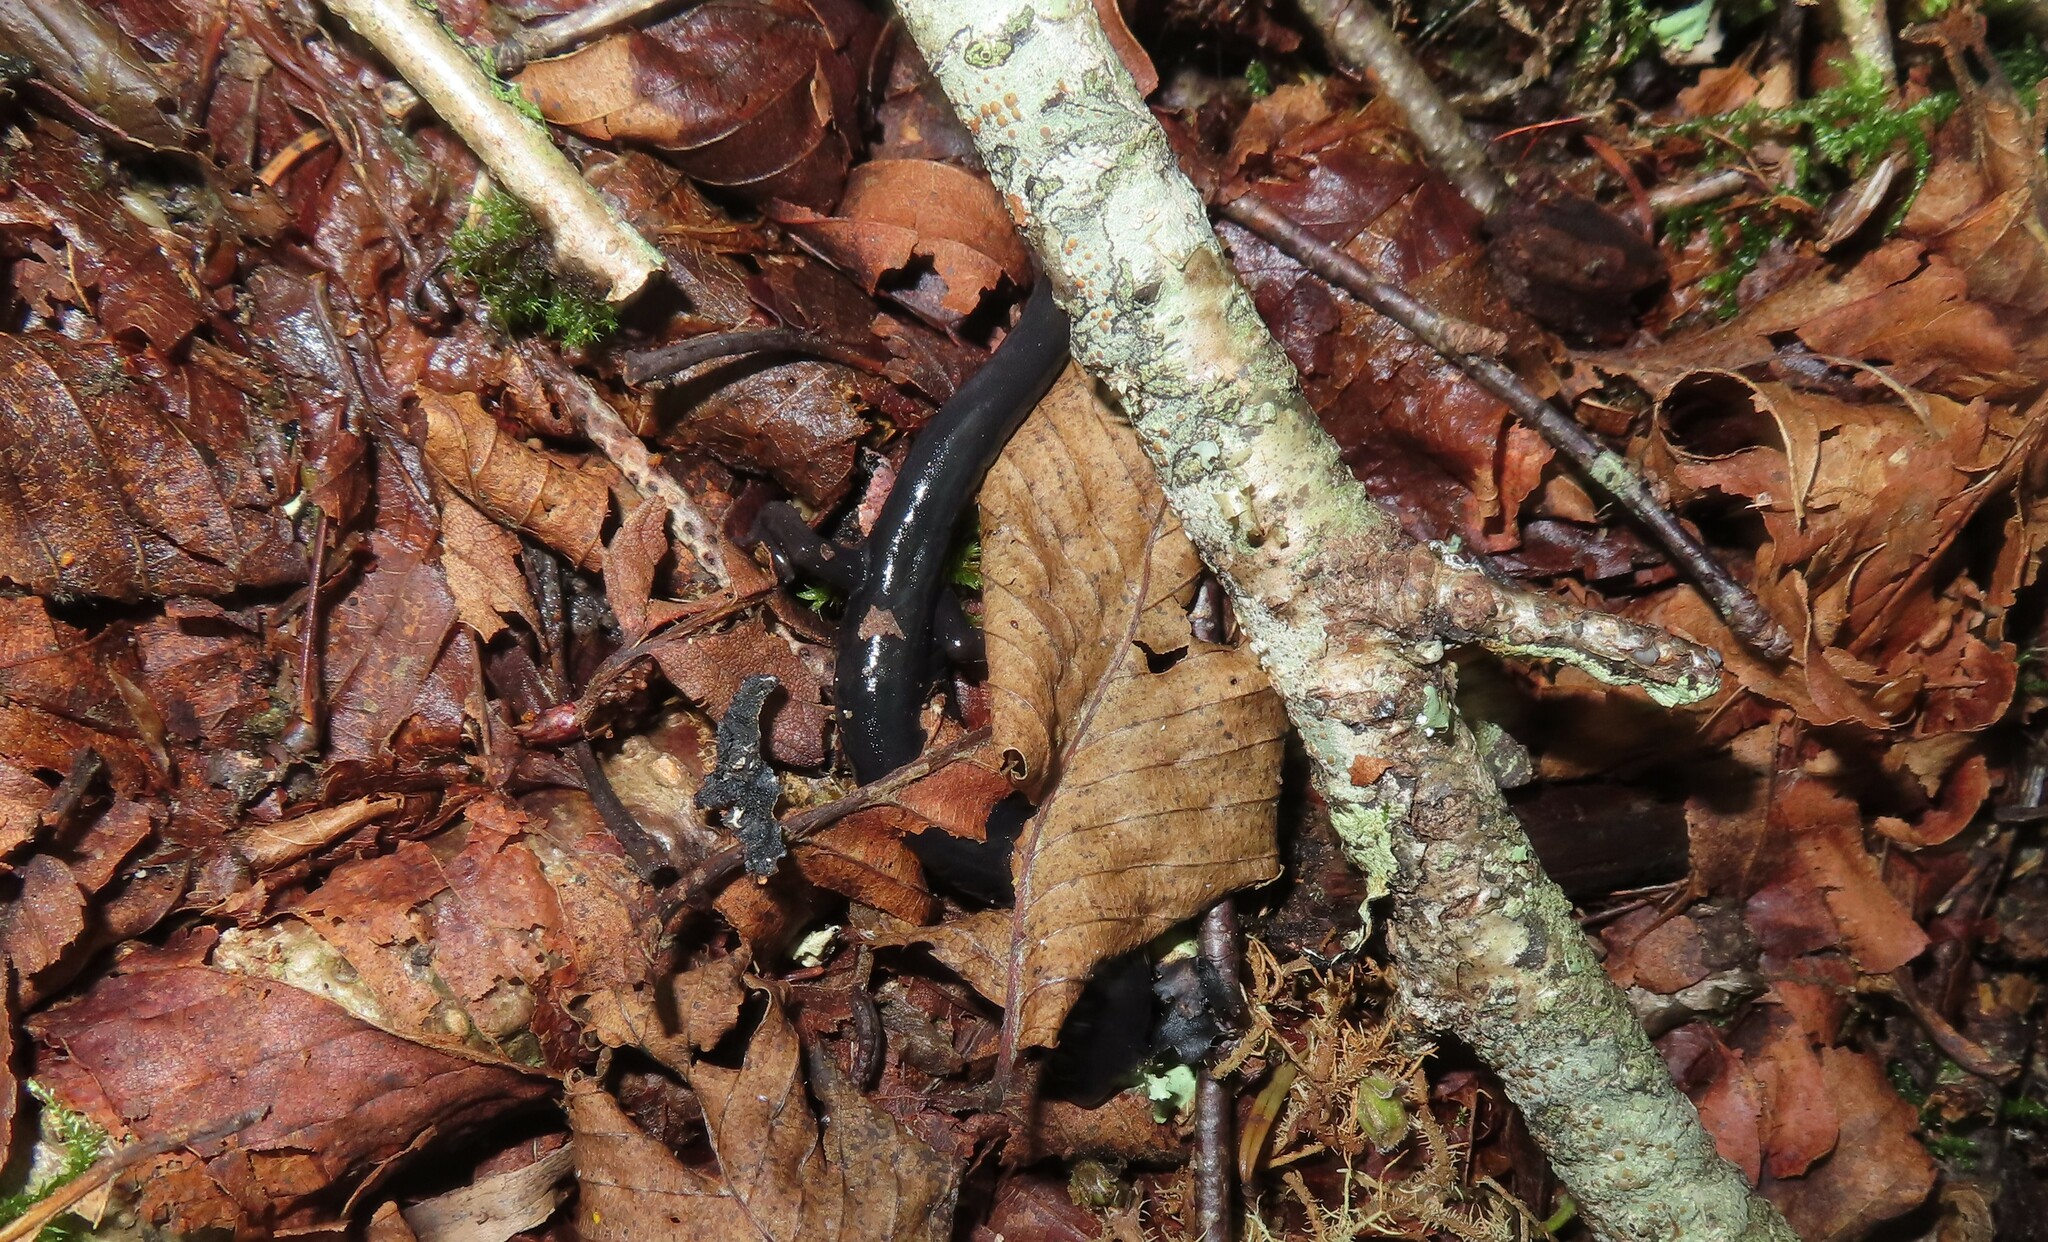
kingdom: Animalia
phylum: Chordata
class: Amphibia
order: Caudata
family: Plethodontidae
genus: Plethodon
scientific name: Plethodon teyahalee
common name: Southern appalachian salamander
